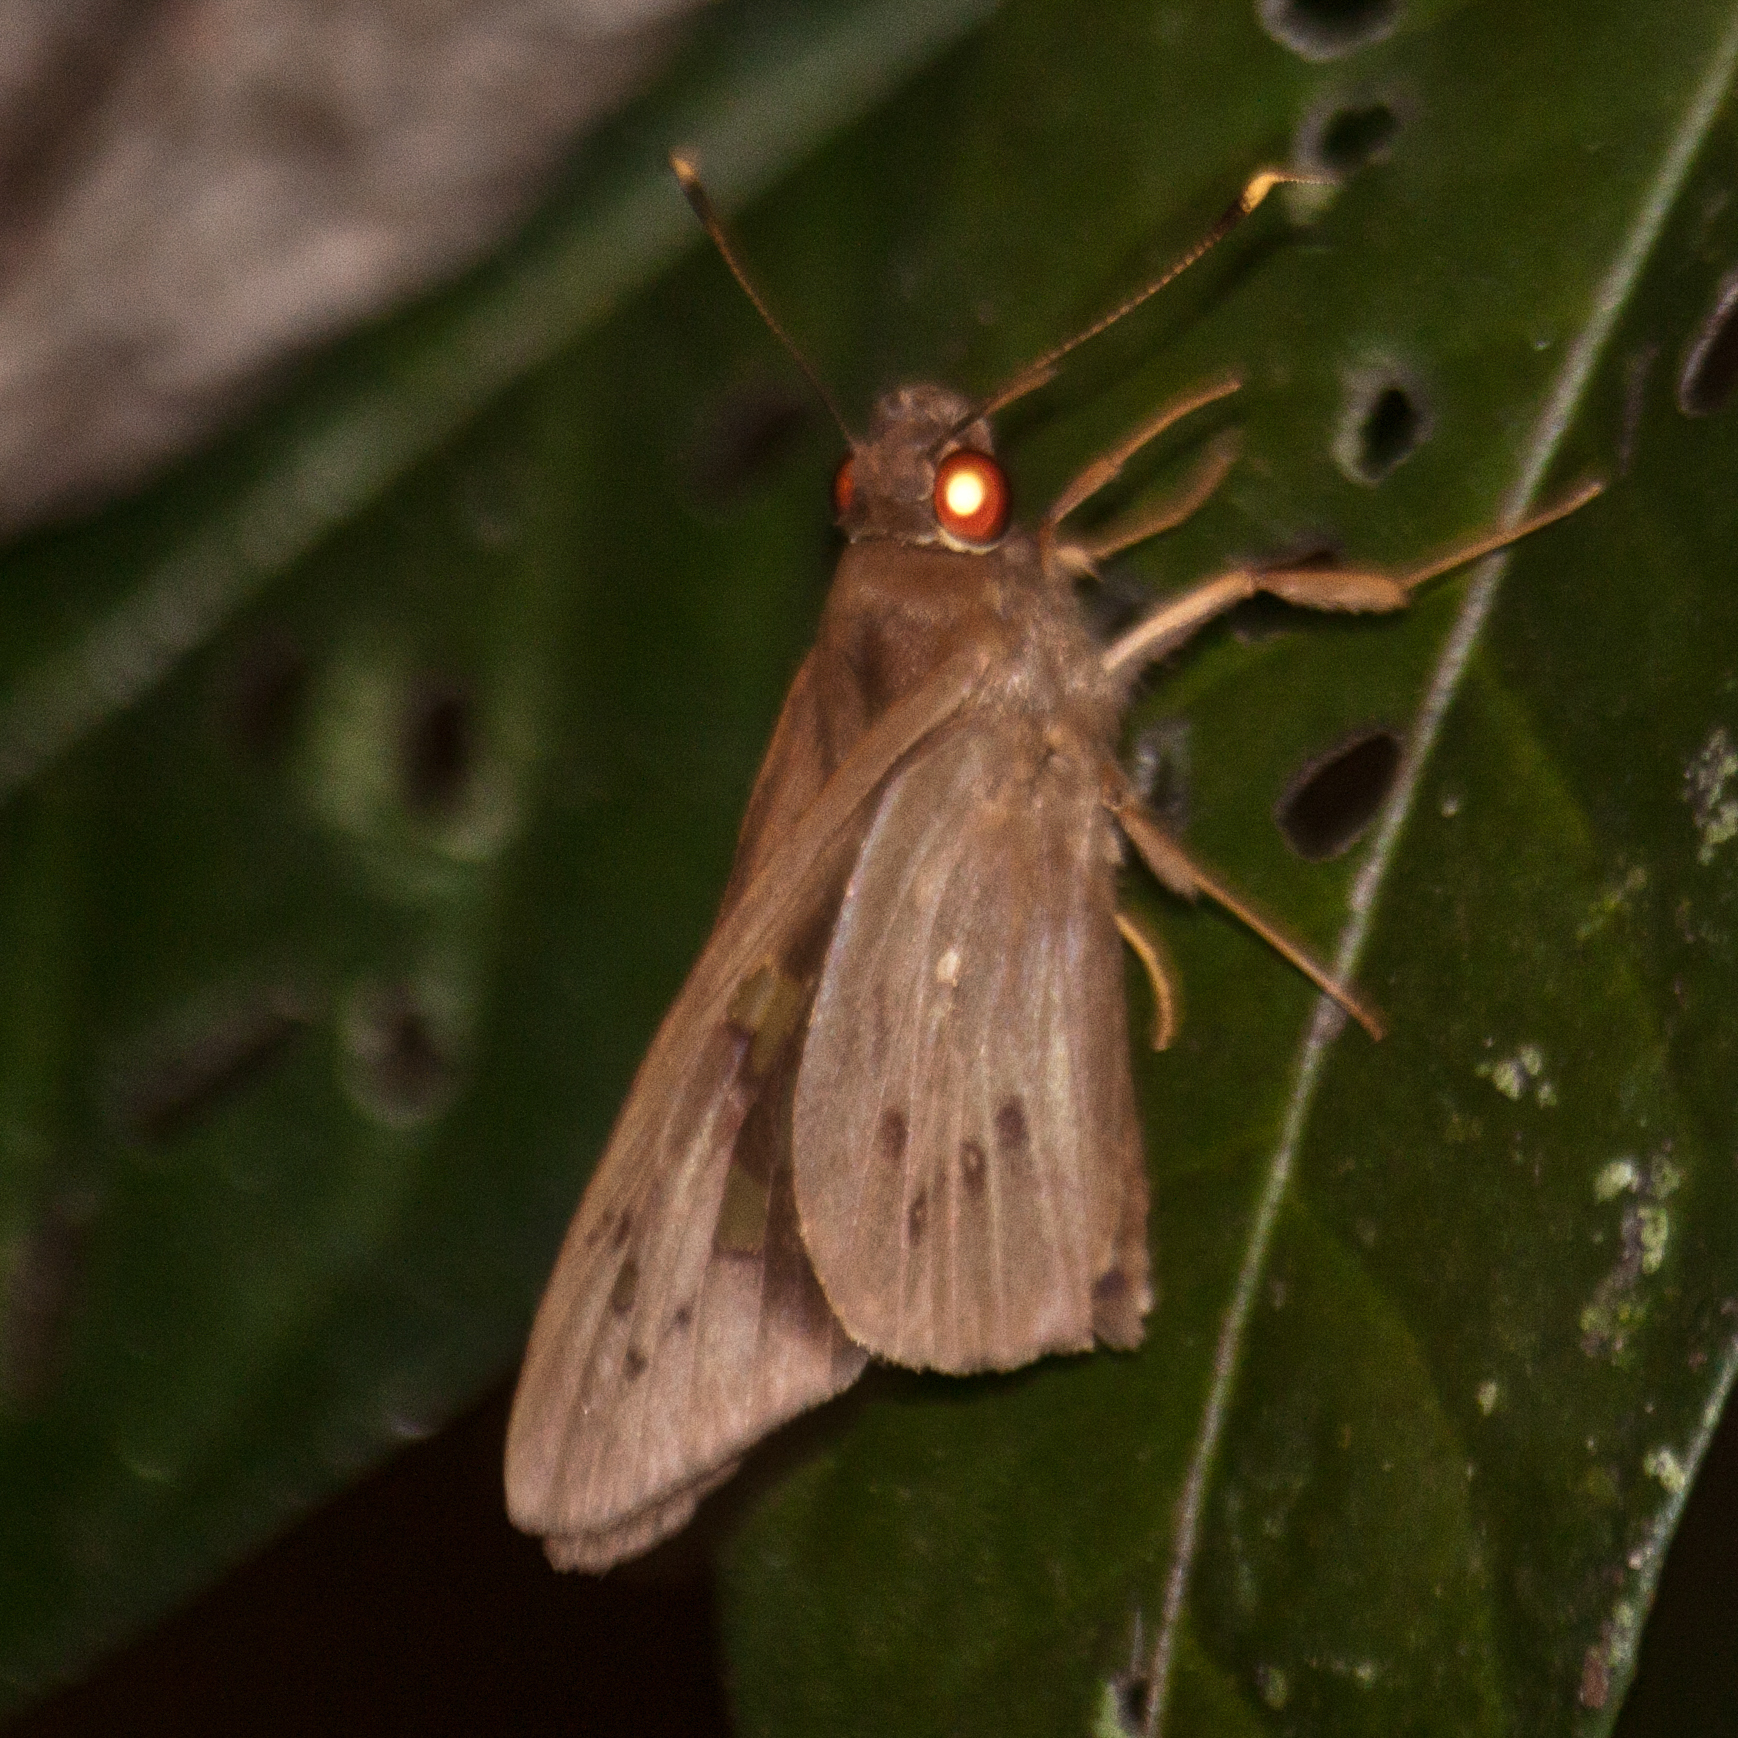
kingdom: Animalia
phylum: Arthropoda
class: Insecta
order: Lepidoptera
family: Hesperiidae
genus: Hidari
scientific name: Hidari irava
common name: Coconut skipper
